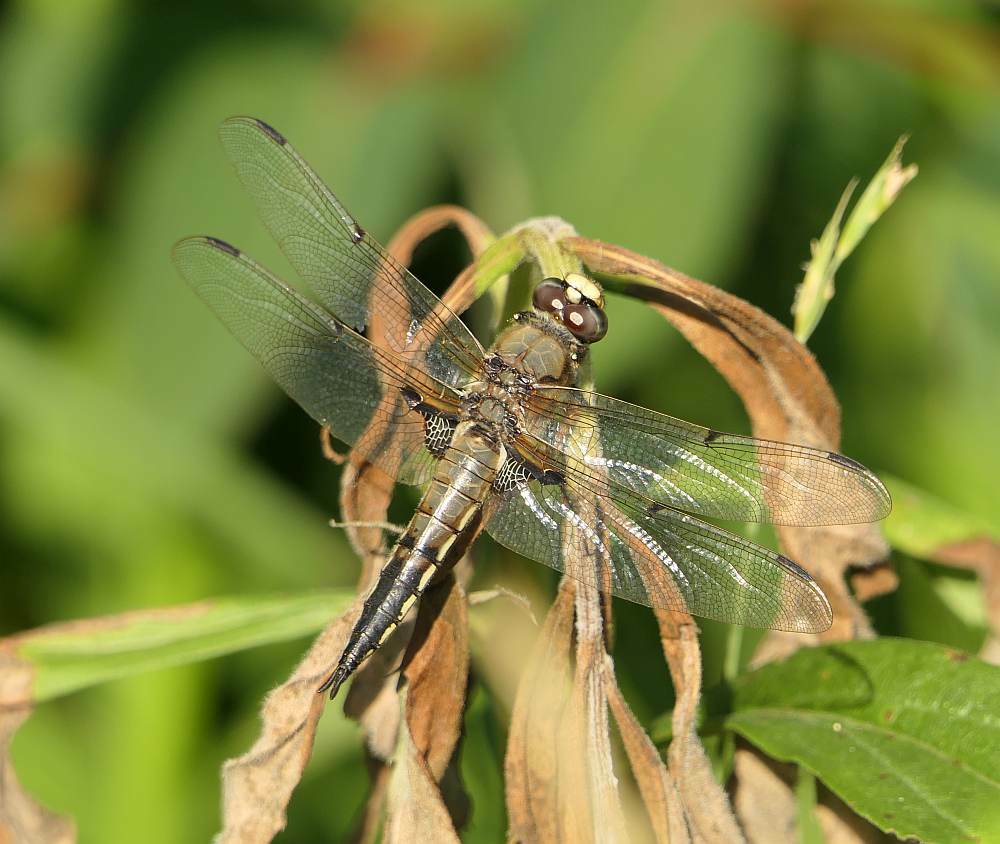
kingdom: Animalia
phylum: Arthropoda
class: Insecta
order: Odonata
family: Libellulidae
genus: Libellula
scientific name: Libellula quadrimaculata
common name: Four-spotted chaser
